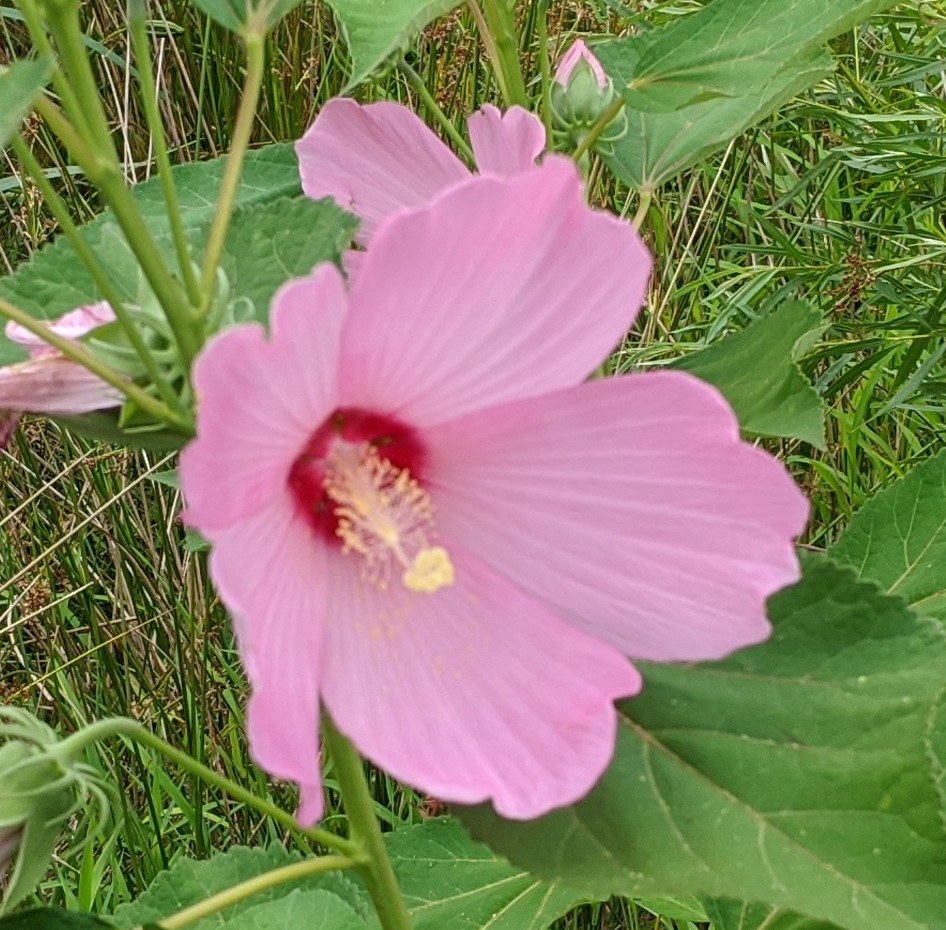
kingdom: Plantae
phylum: Tracheophyta
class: Magnoliopsida
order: Malvales
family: Malvaceae
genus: Hibiscus
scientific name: Hibiscus moscheutos
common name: Common rose-mallow
